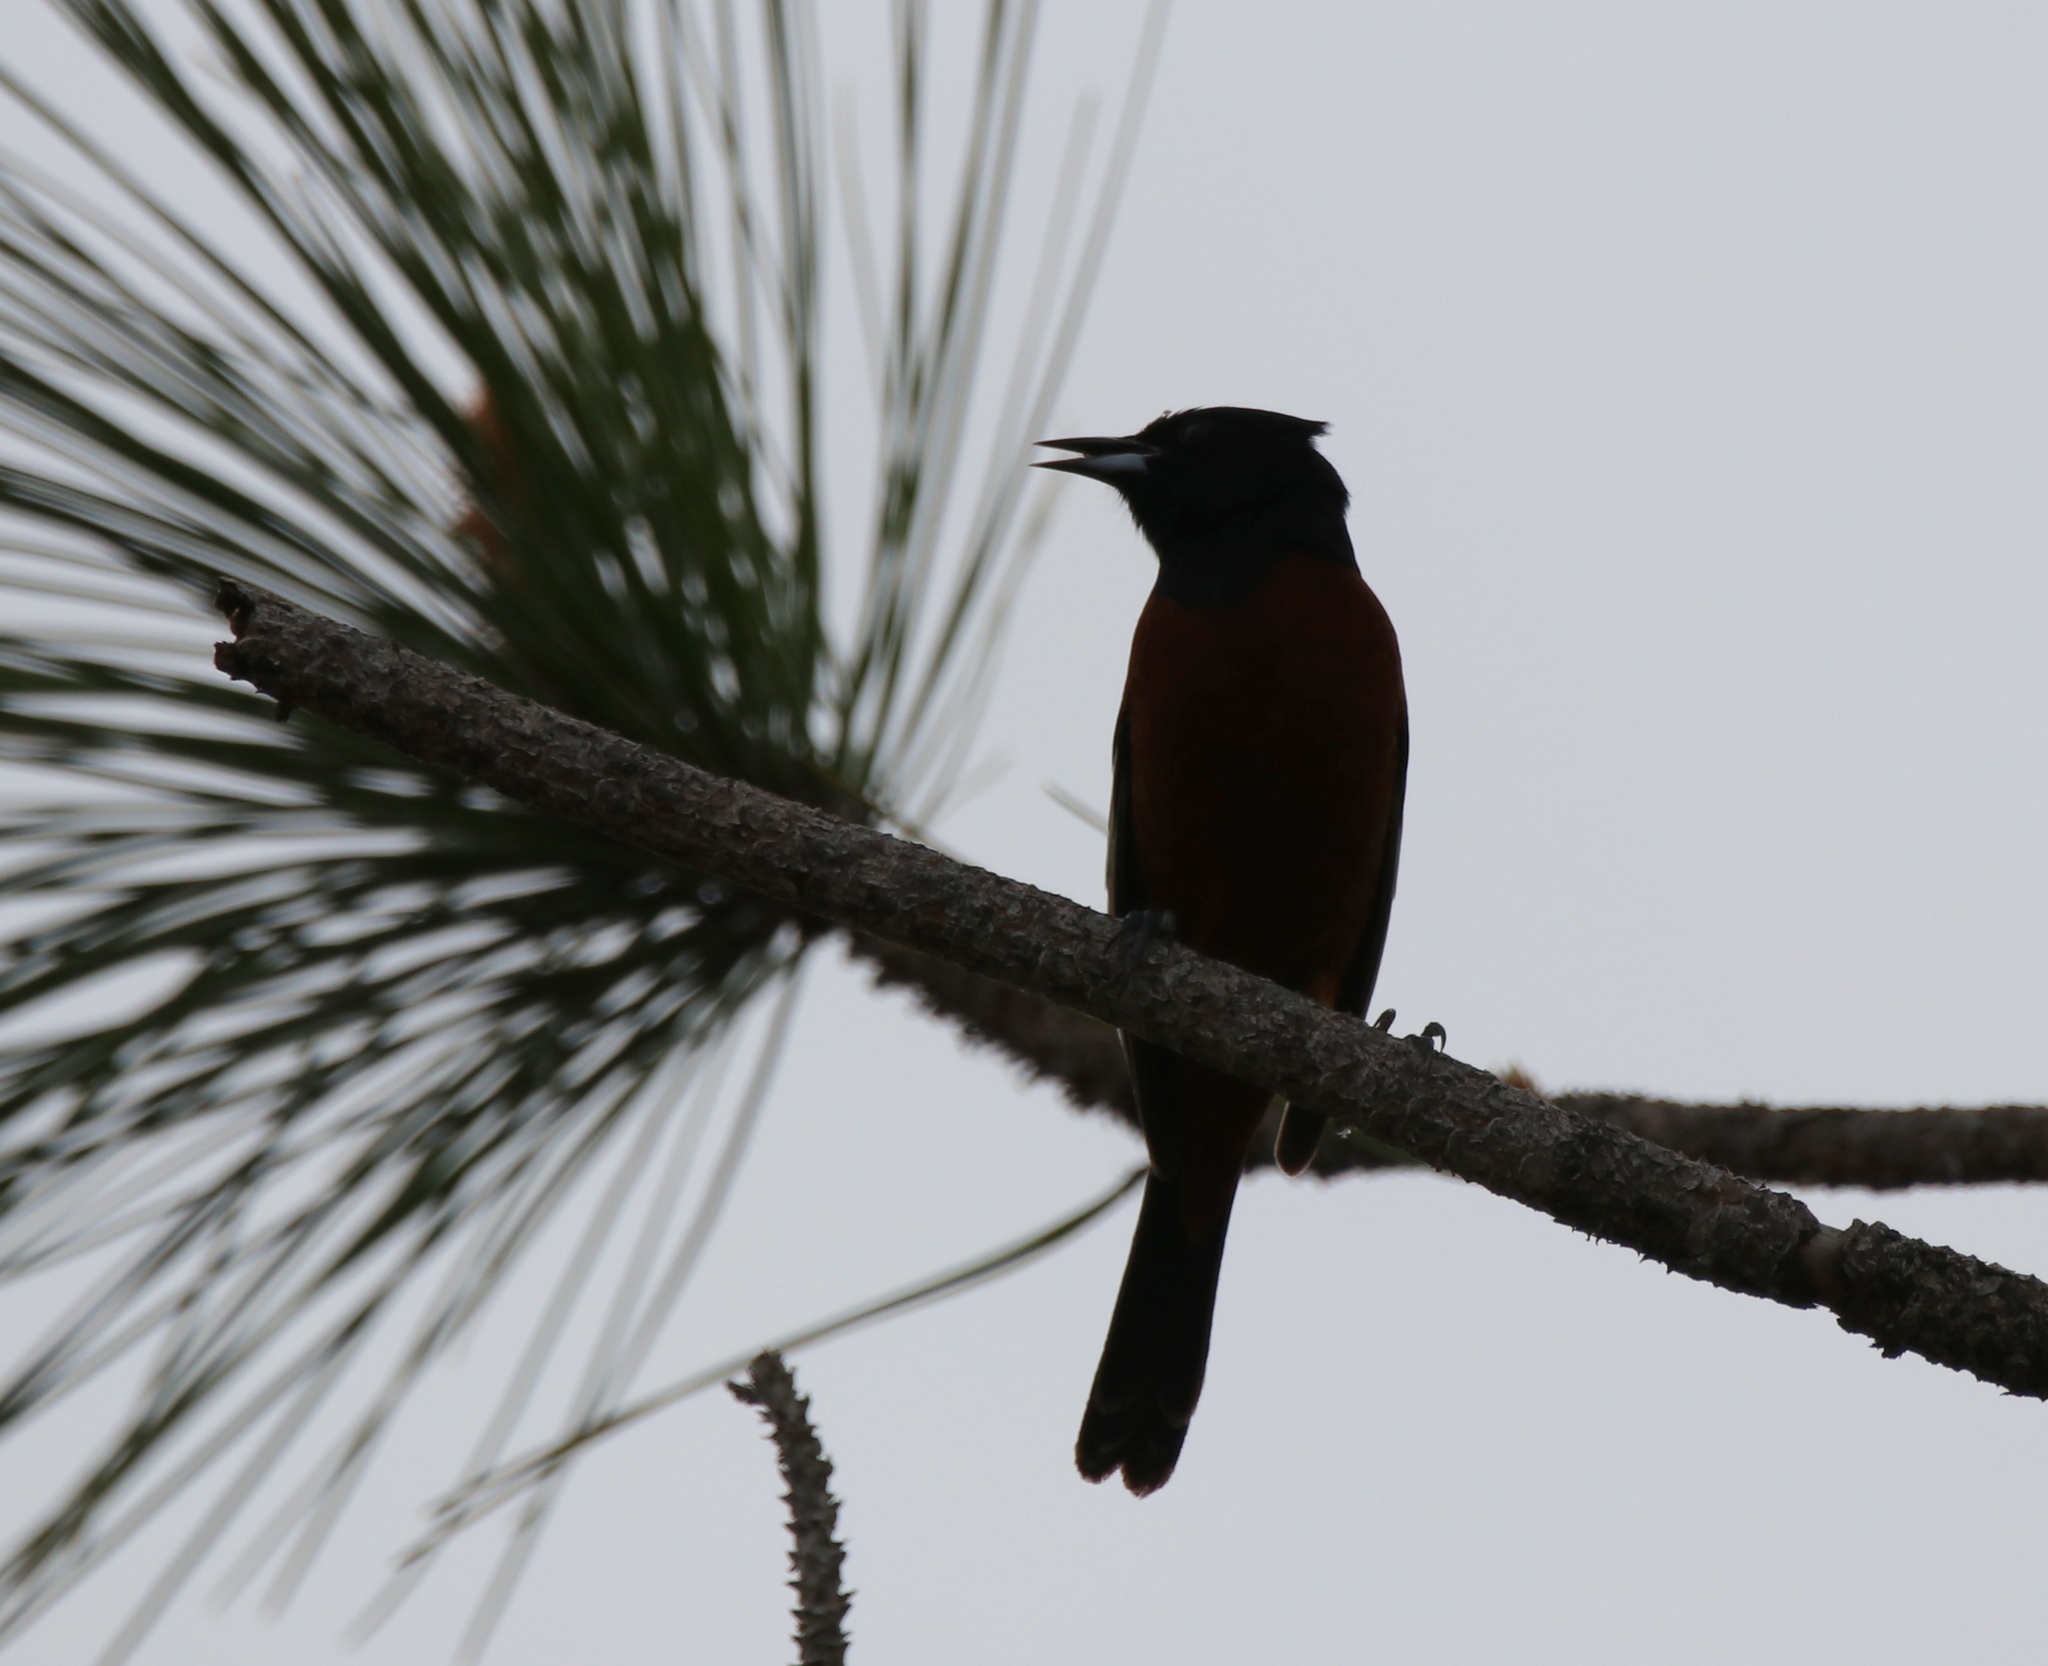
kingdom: Animalia
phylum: Chordata
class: Aves
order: Passeriformes
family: Icteridae
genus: Icterus
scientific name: Icterus spurius
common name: Orchard oriole
